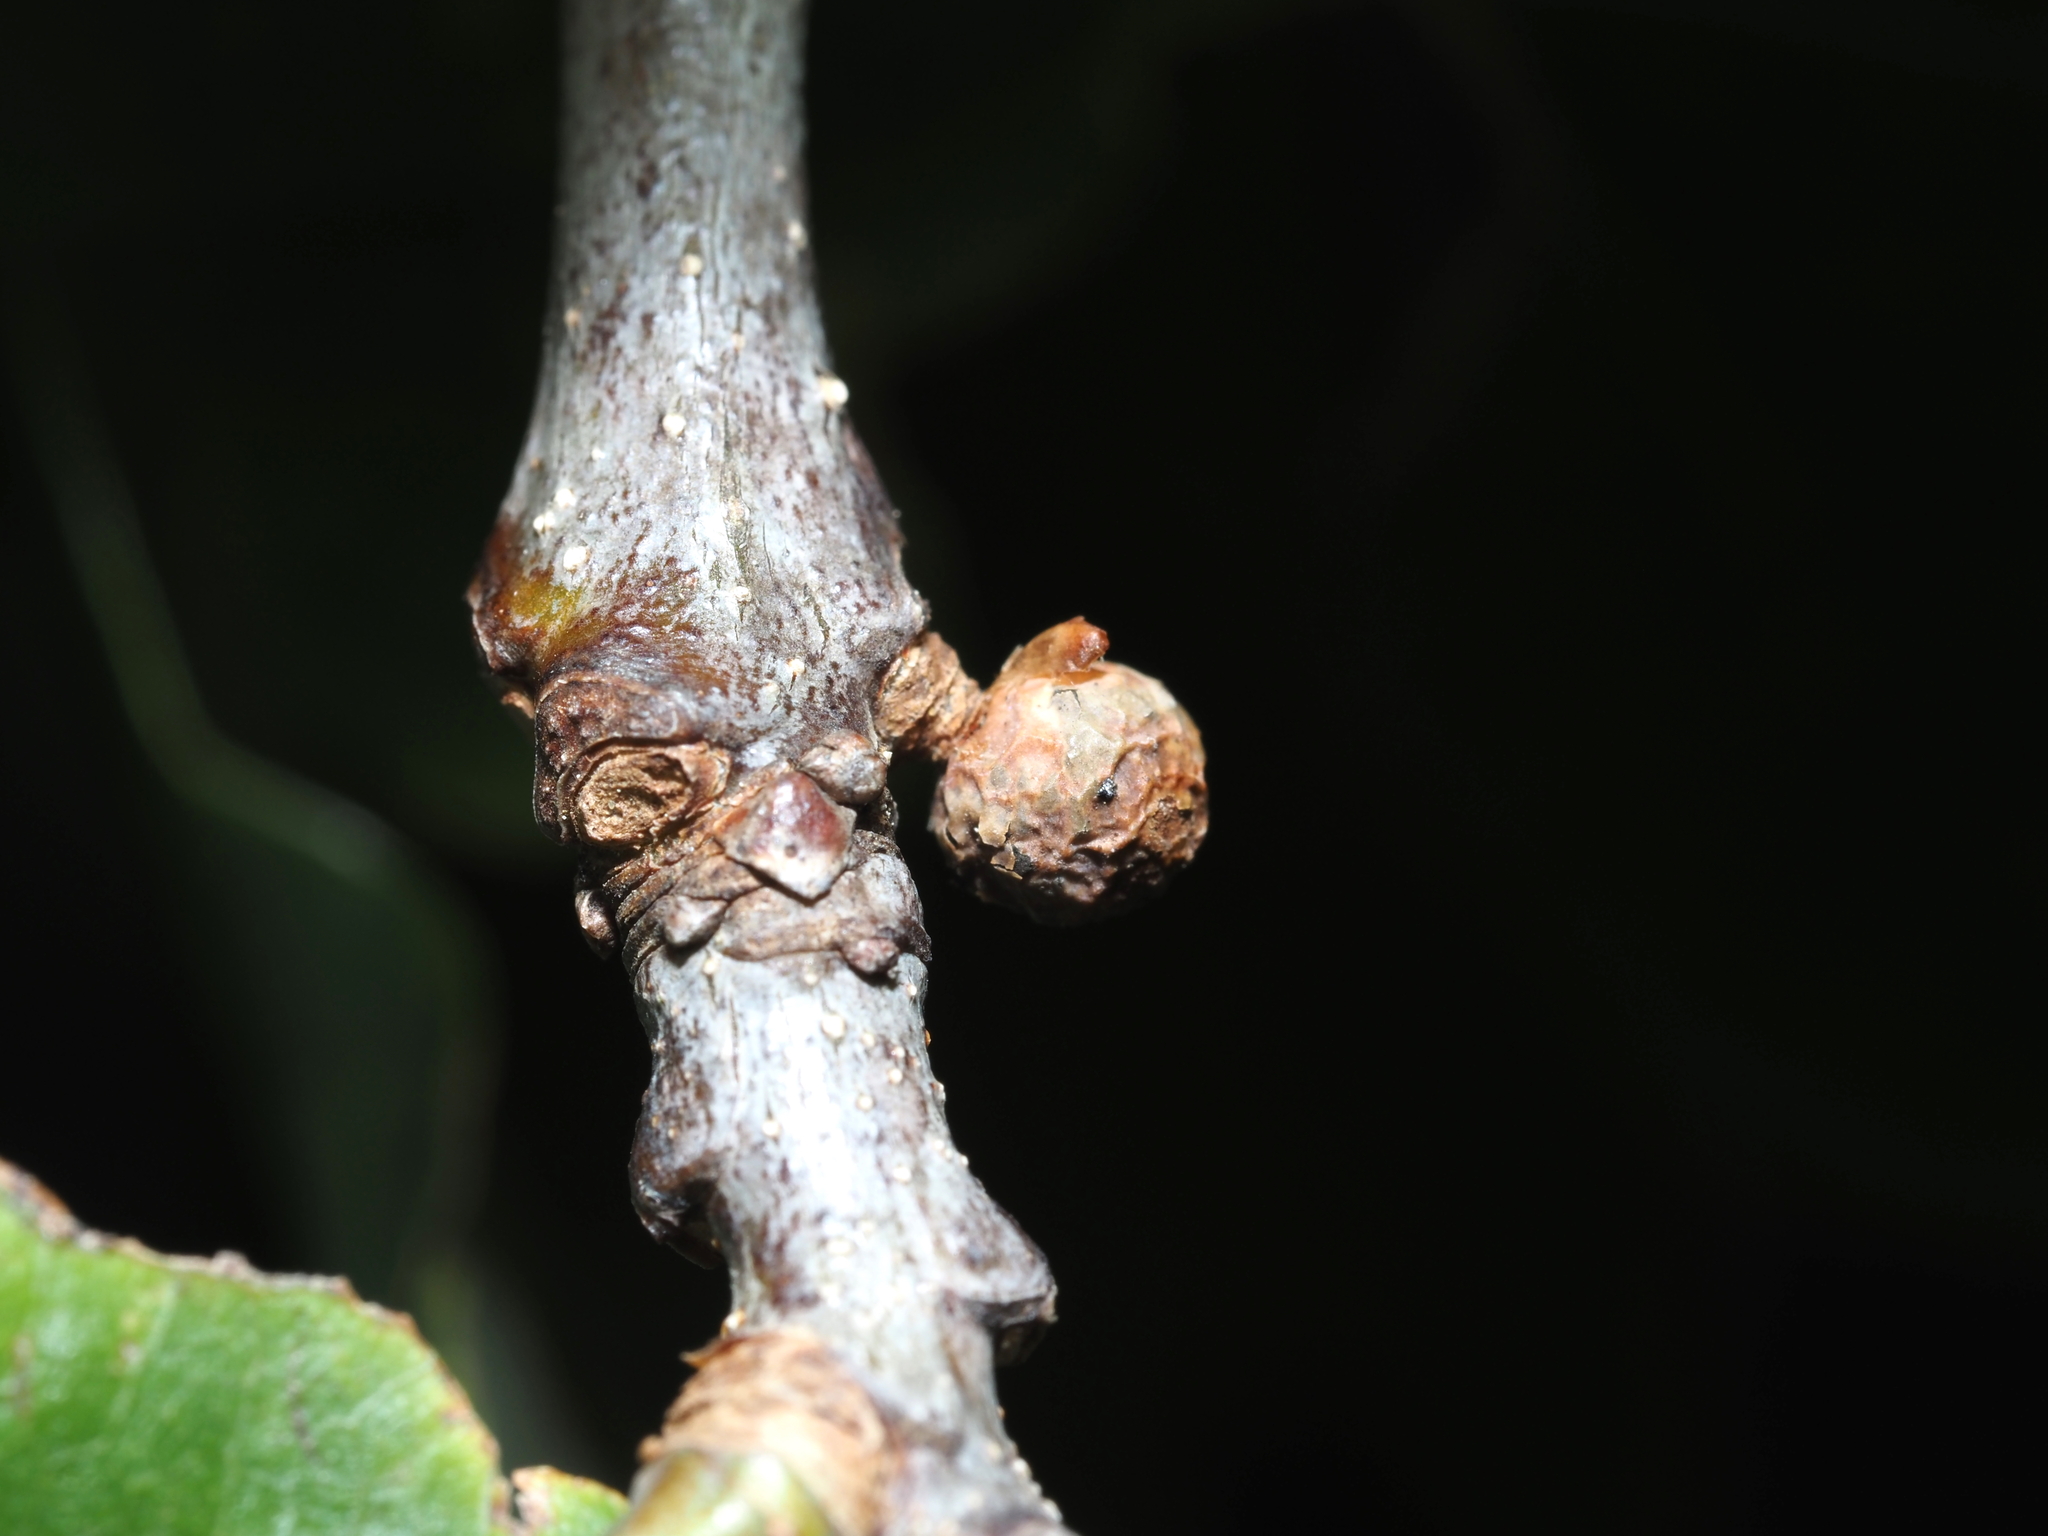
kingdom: Animalia
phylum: Arthropoda
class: Insecta
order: Hymenoptera
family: Cynipidae
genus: Andricus
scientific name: Andricus
